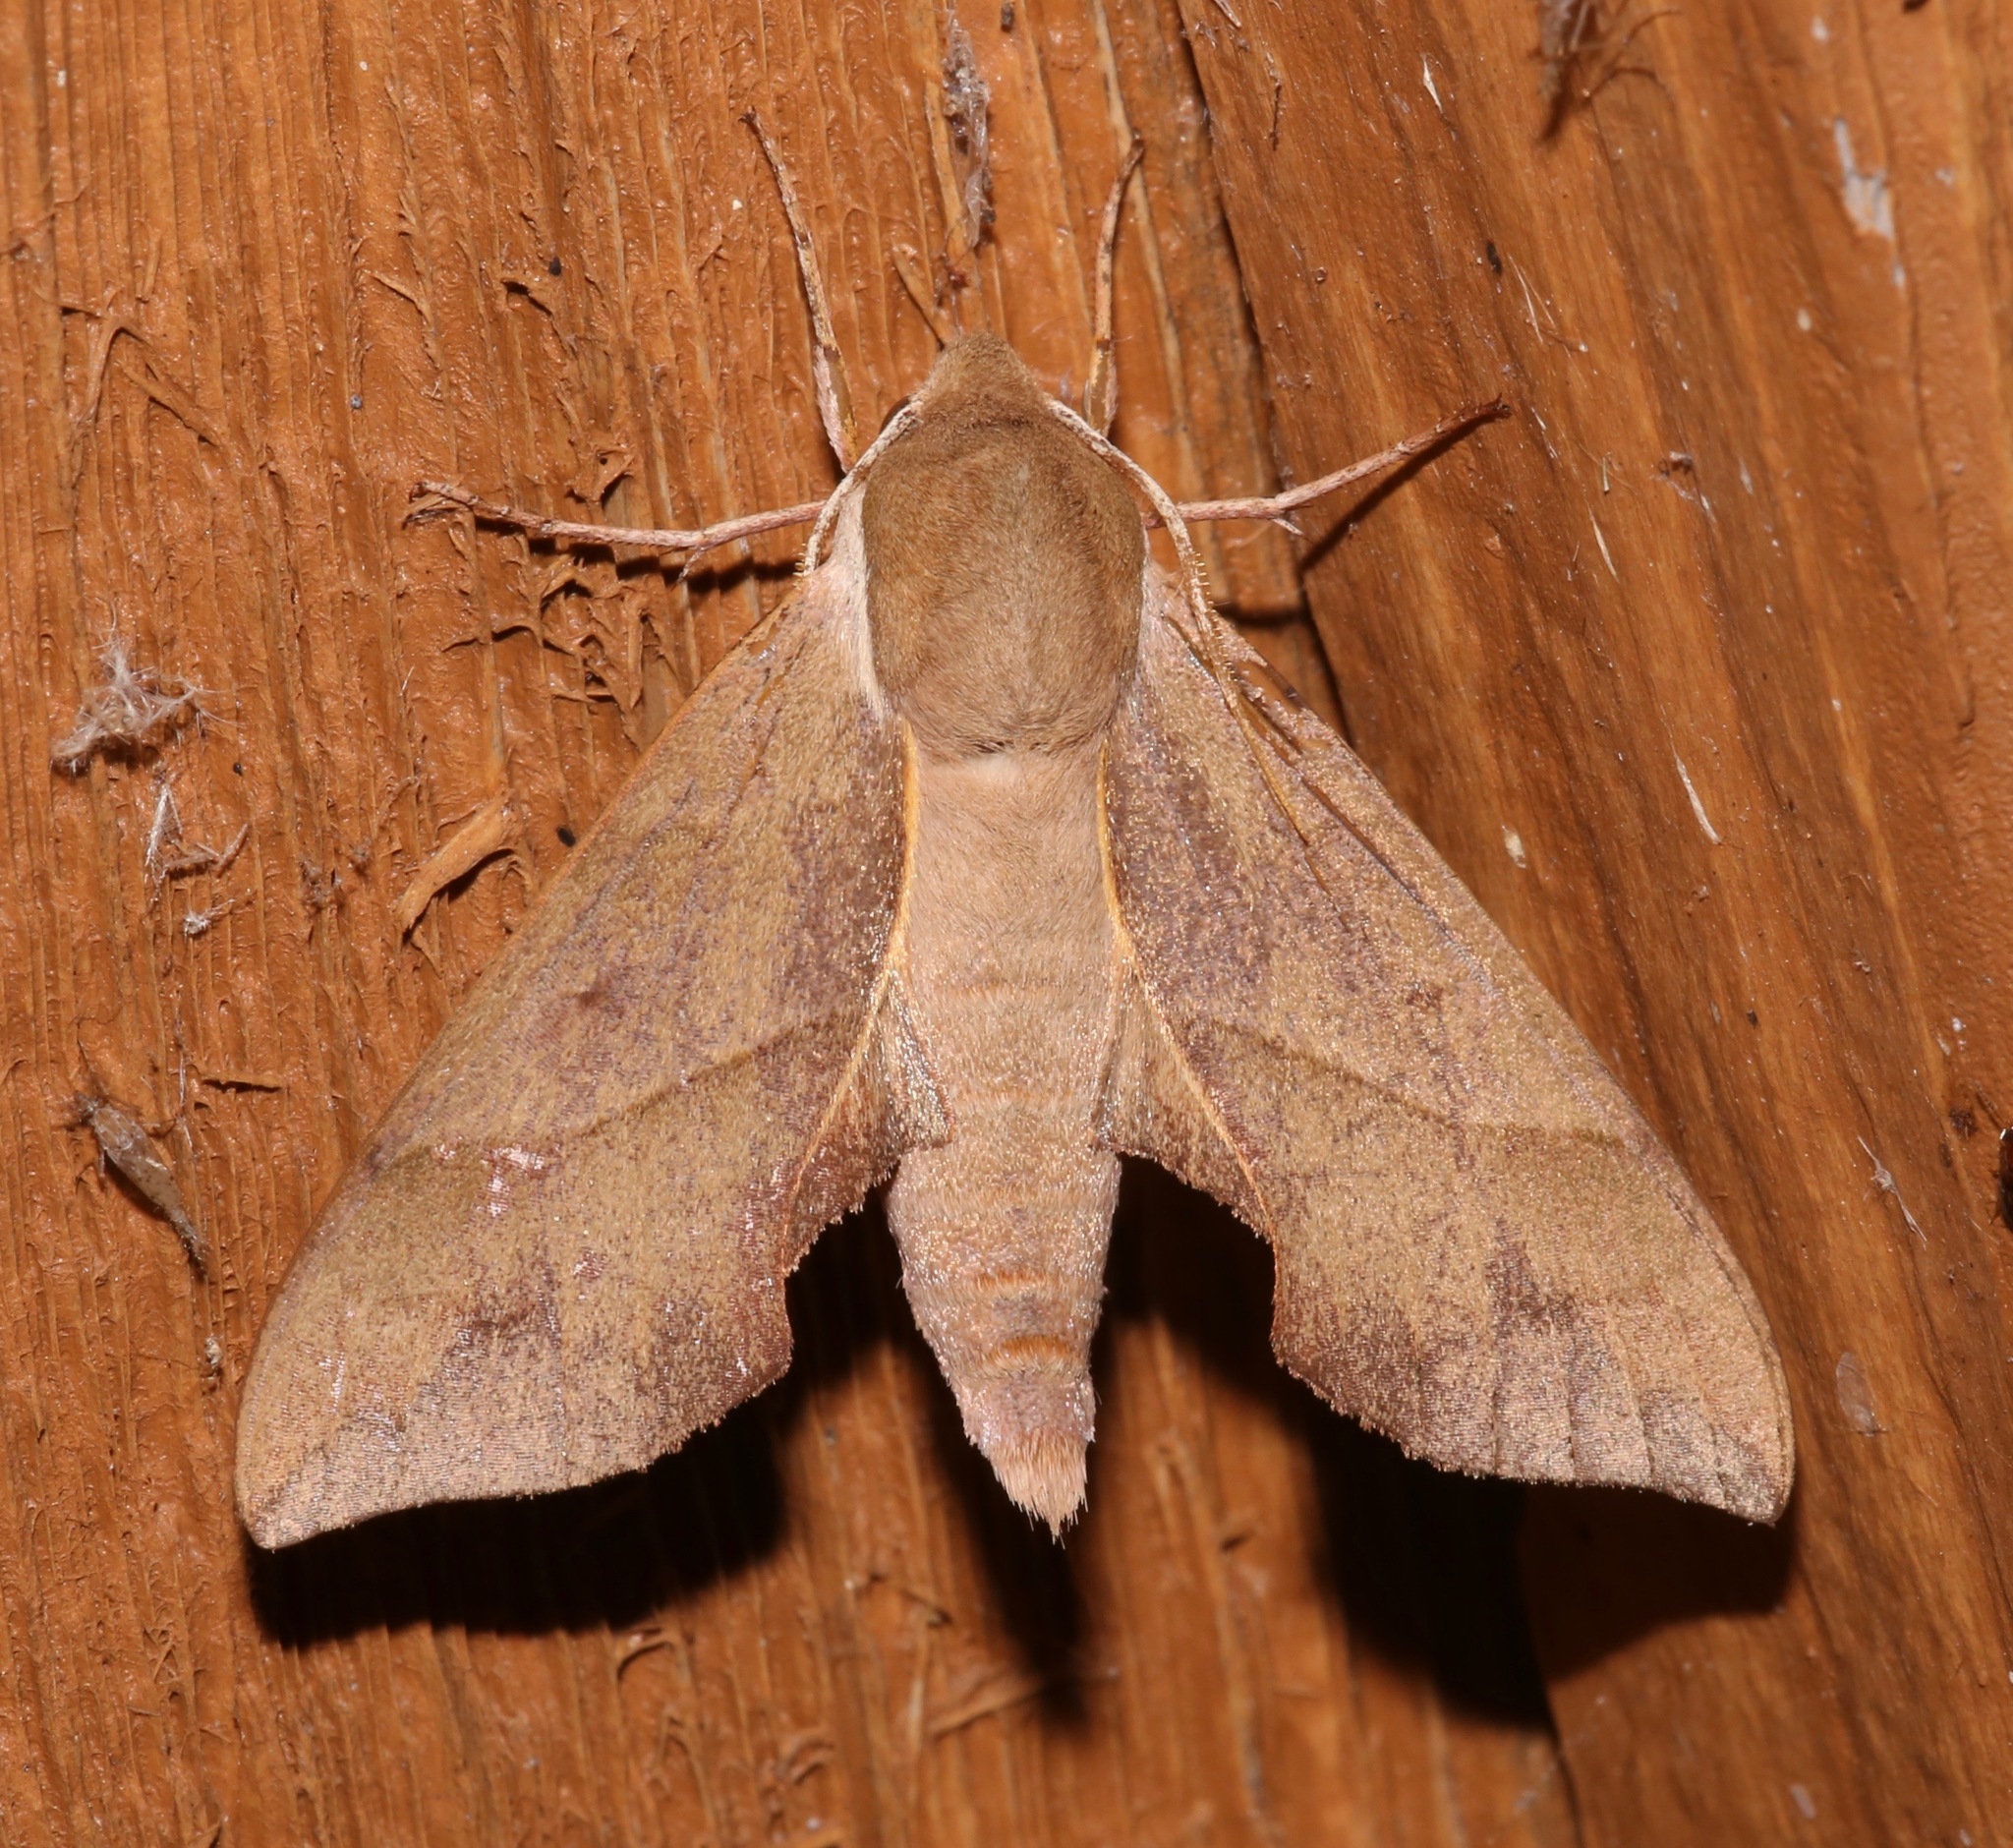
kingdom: Animalia
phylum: Arthropoda
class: Insecta
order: Lepidoptera
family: Sphingidae
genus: Darapsa
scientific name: Darapsa myron
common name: Hog sphinx
